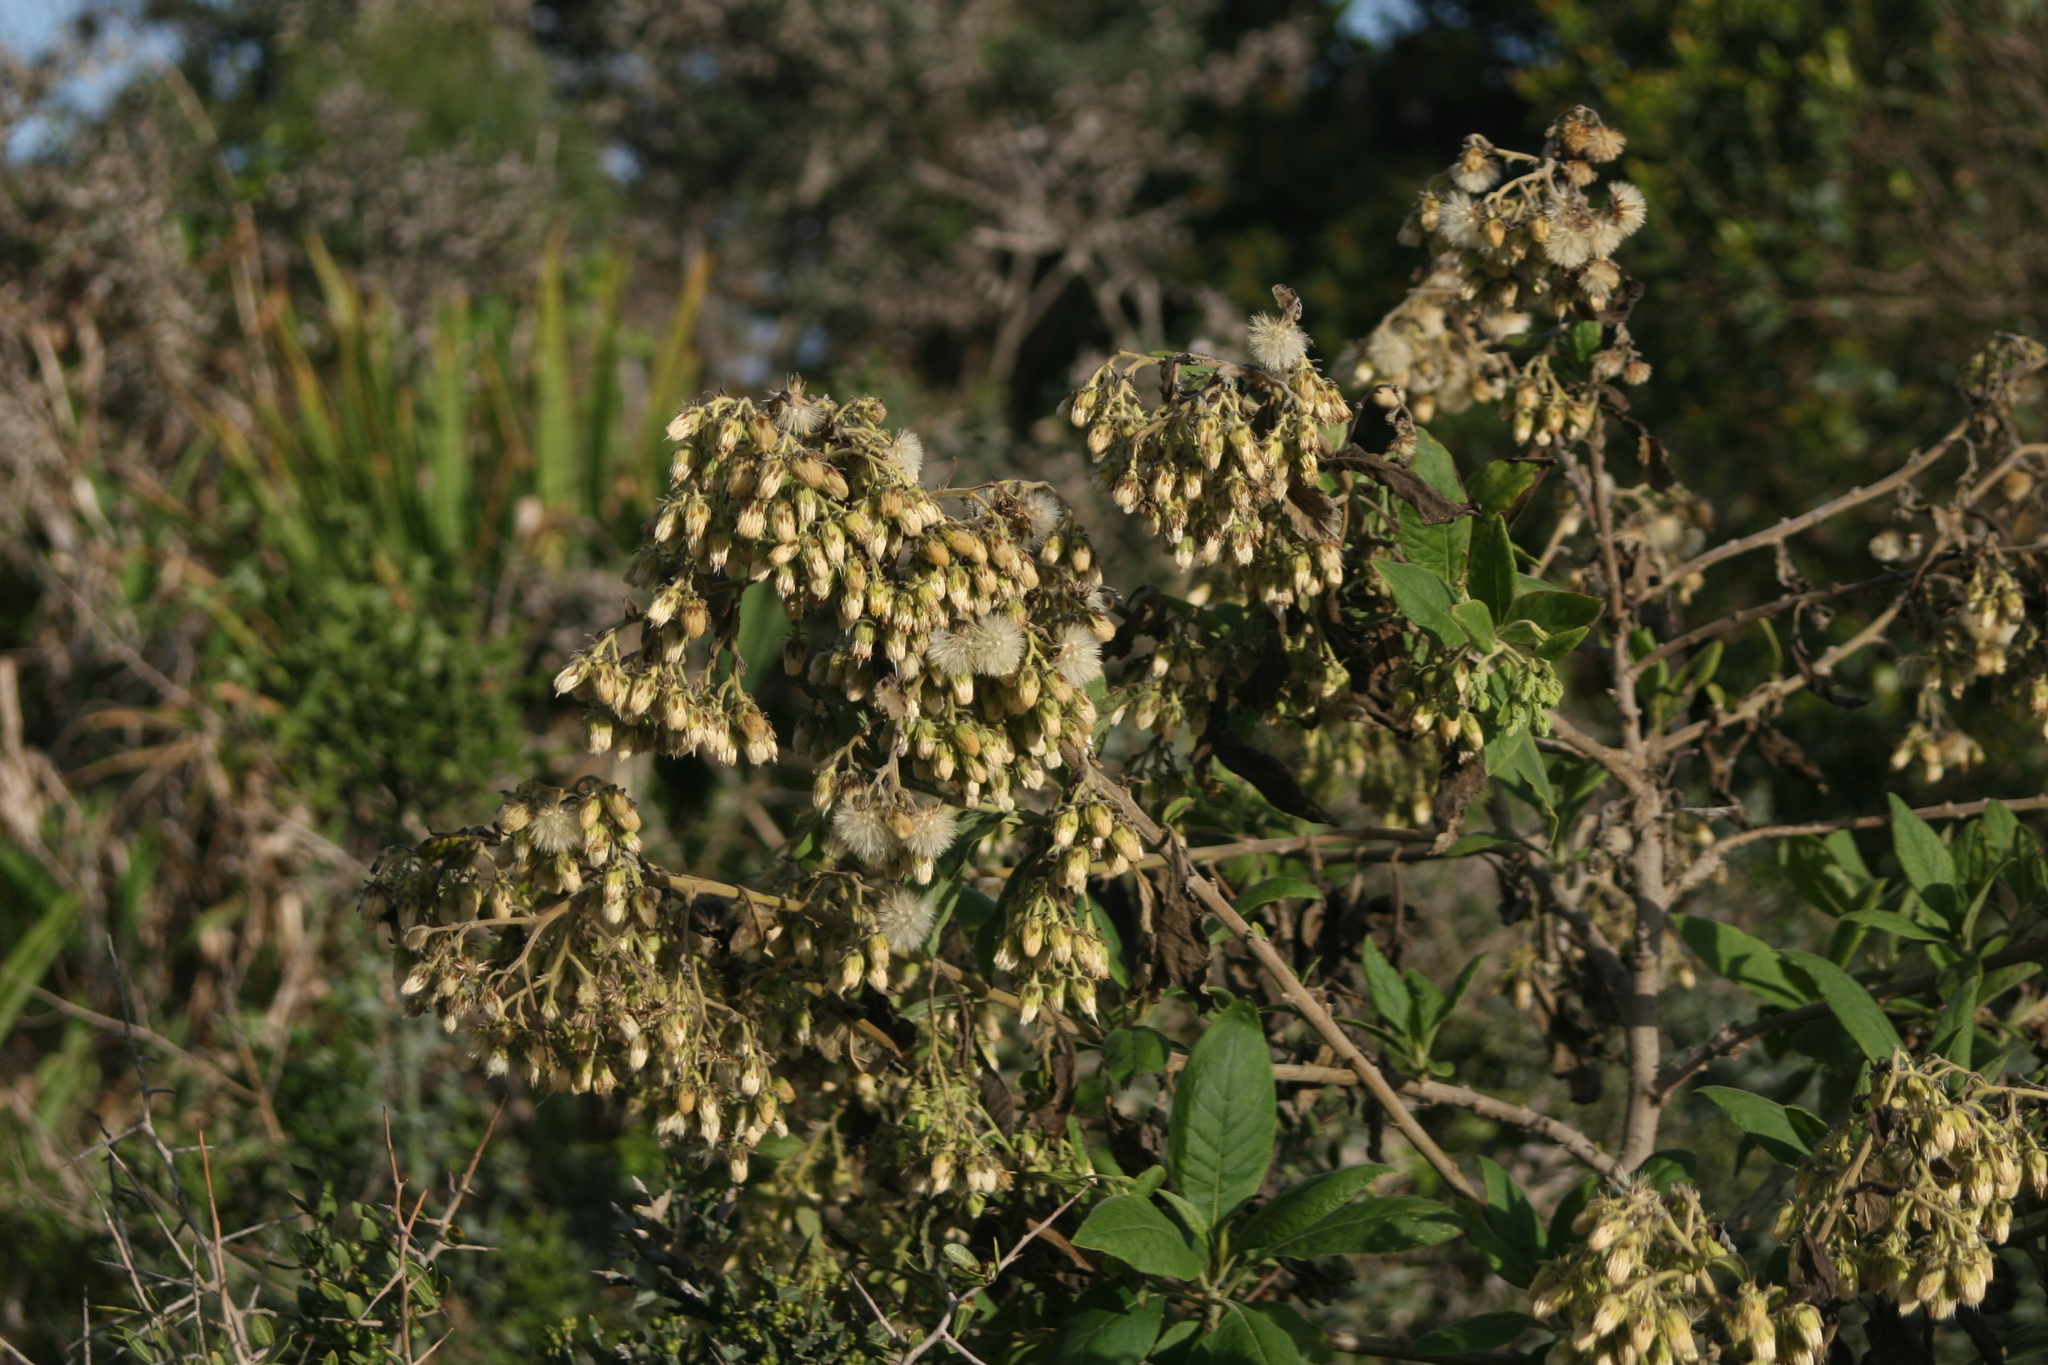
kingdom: Plantae
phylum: Tracheophyta
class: Magnoliopsida
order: Asterales
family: Asteraceae
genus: Trixis
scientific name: Trixis praestans
